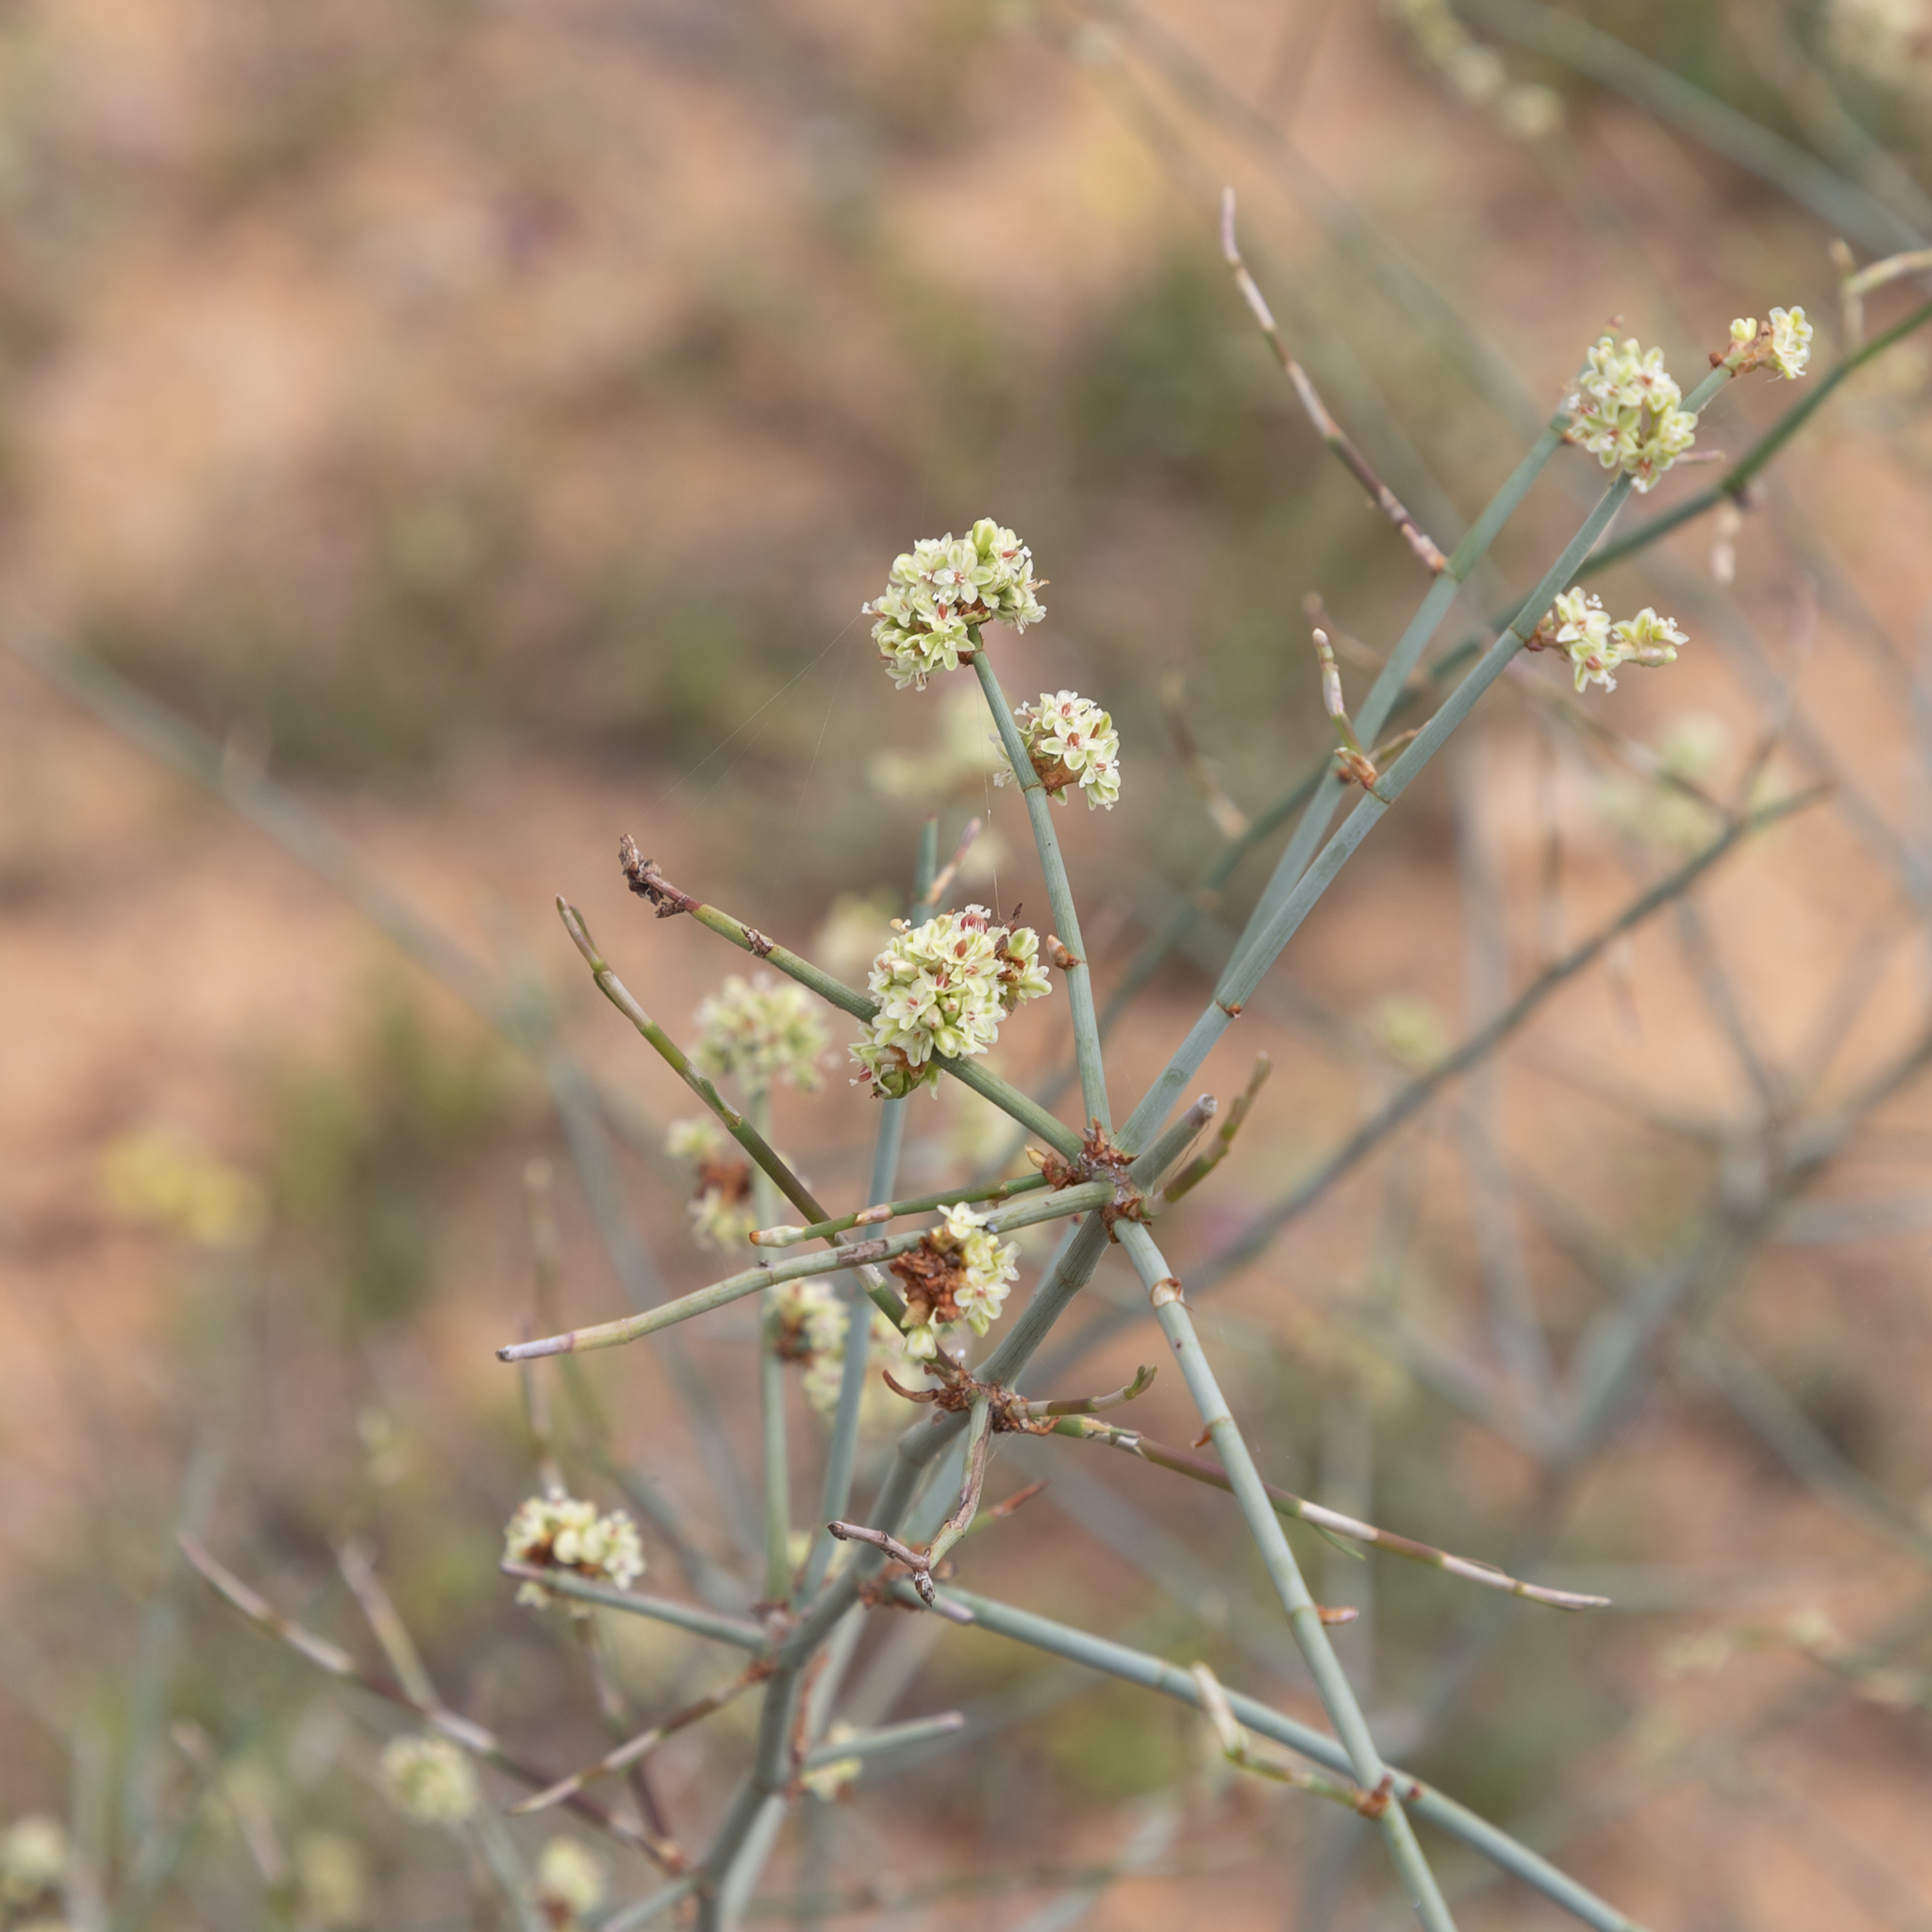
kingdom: Plantae
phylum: Tracheophyta
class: Magnoliopsida
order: Caryophyllales
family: Polygonaceae
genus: Duma
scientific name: Duma florulenta
